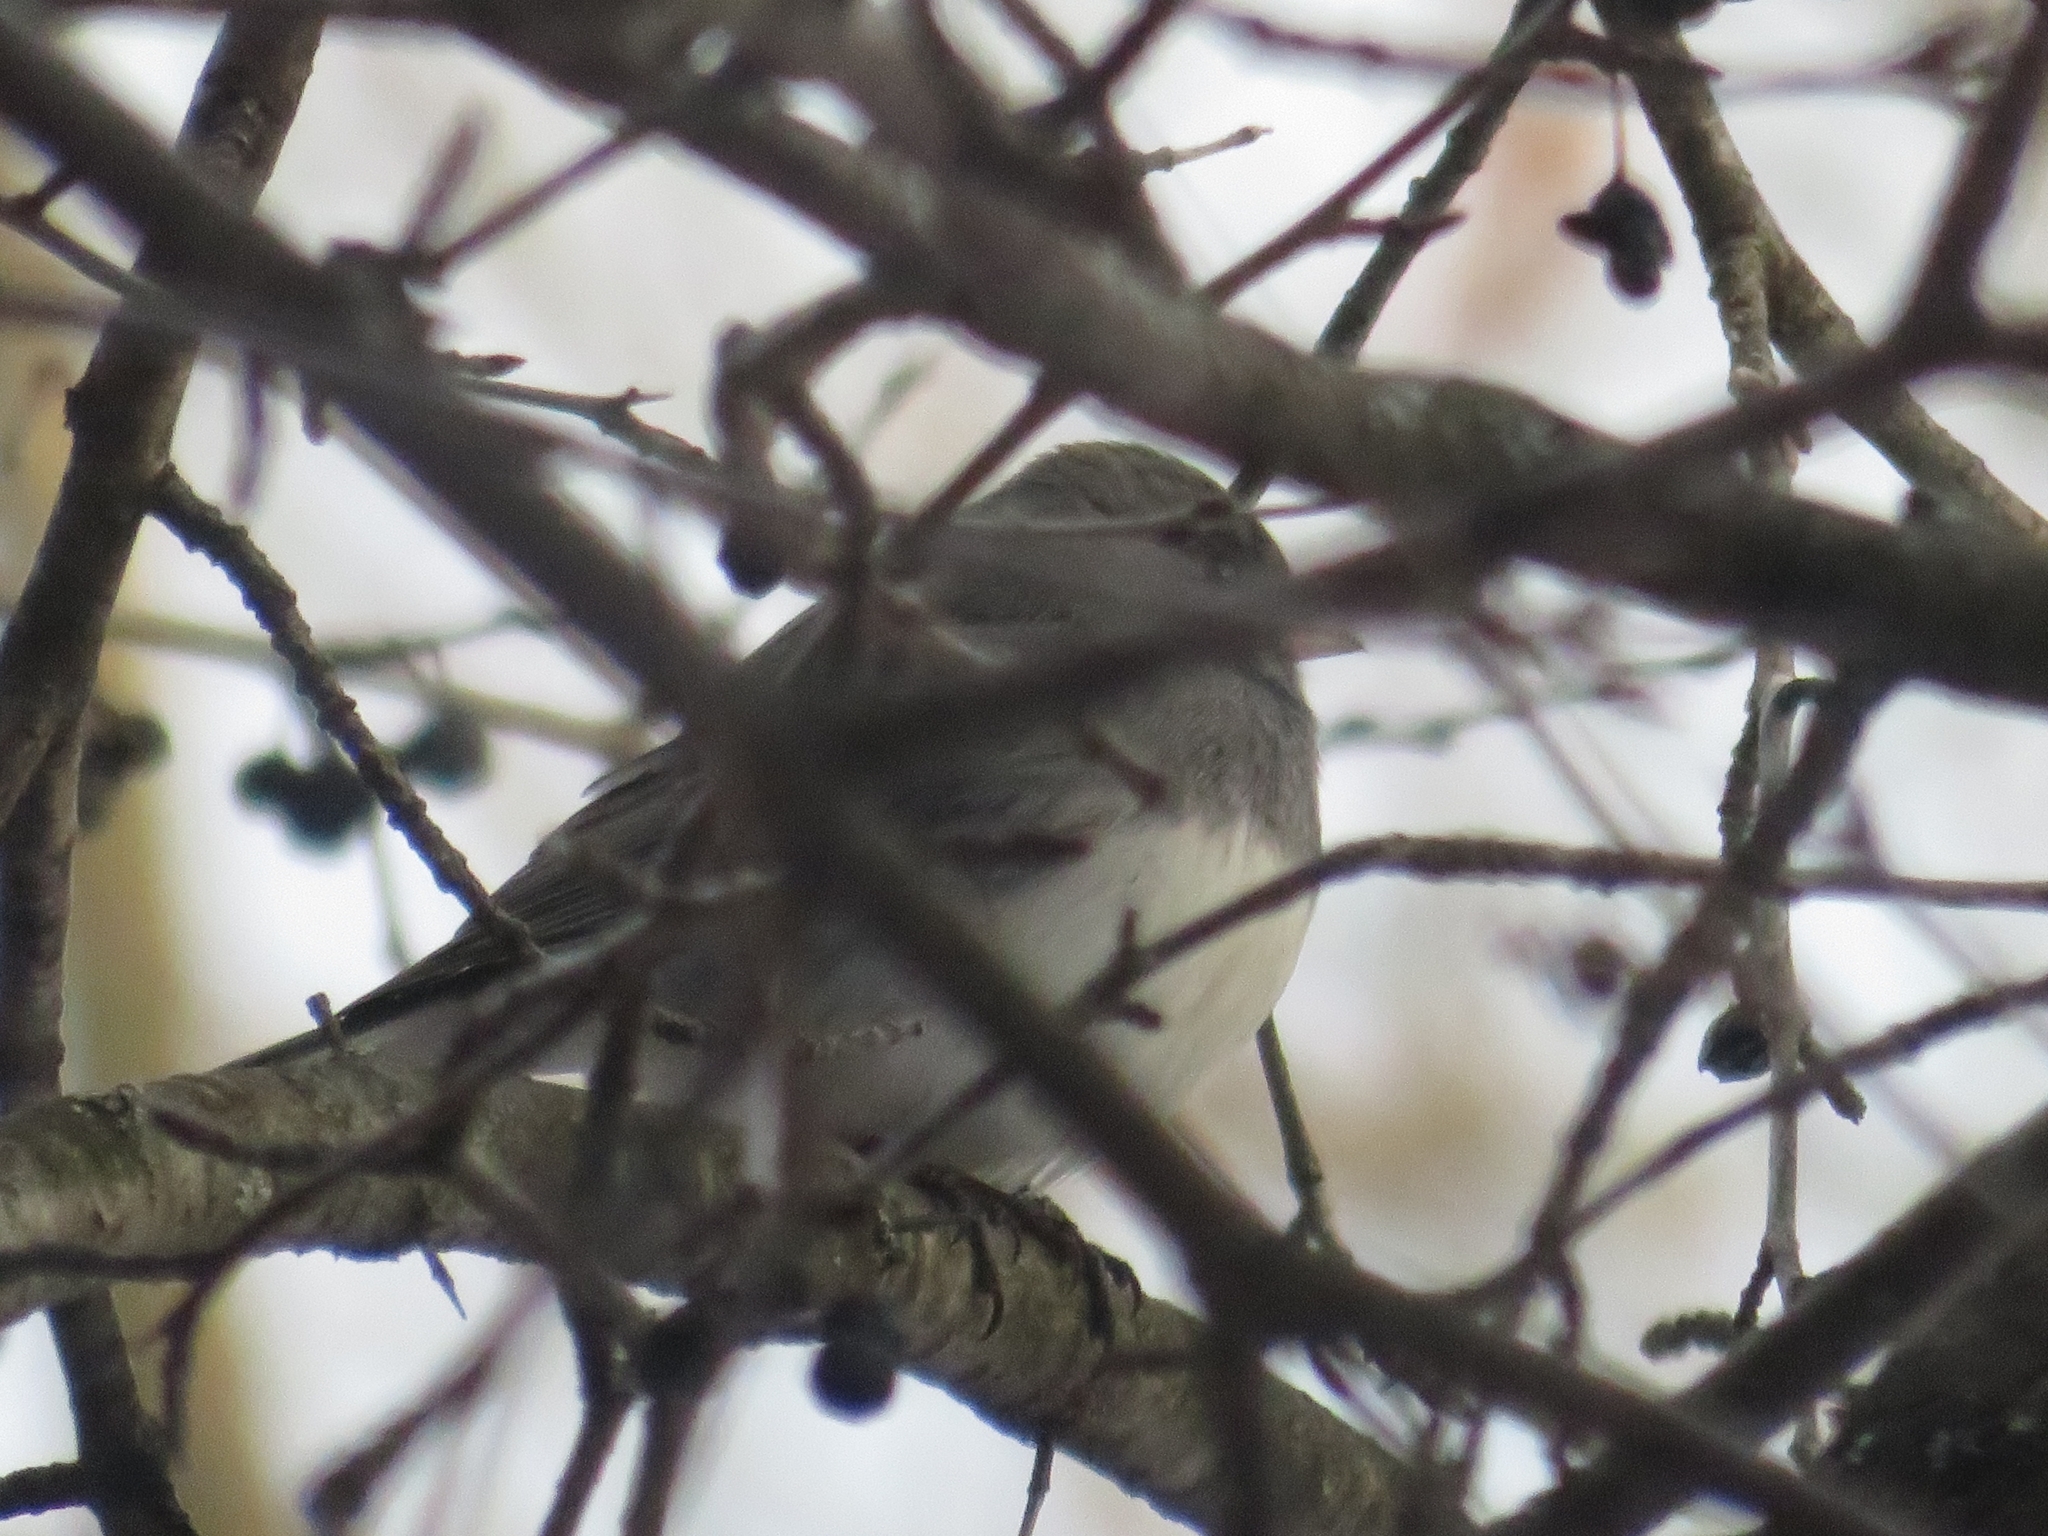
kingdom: Animalia
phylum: Chordata
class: Aves
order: Passeriformes
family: Passerellidae
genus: Junco
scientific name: Junco hyemalis
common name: Dark-eyed junco
